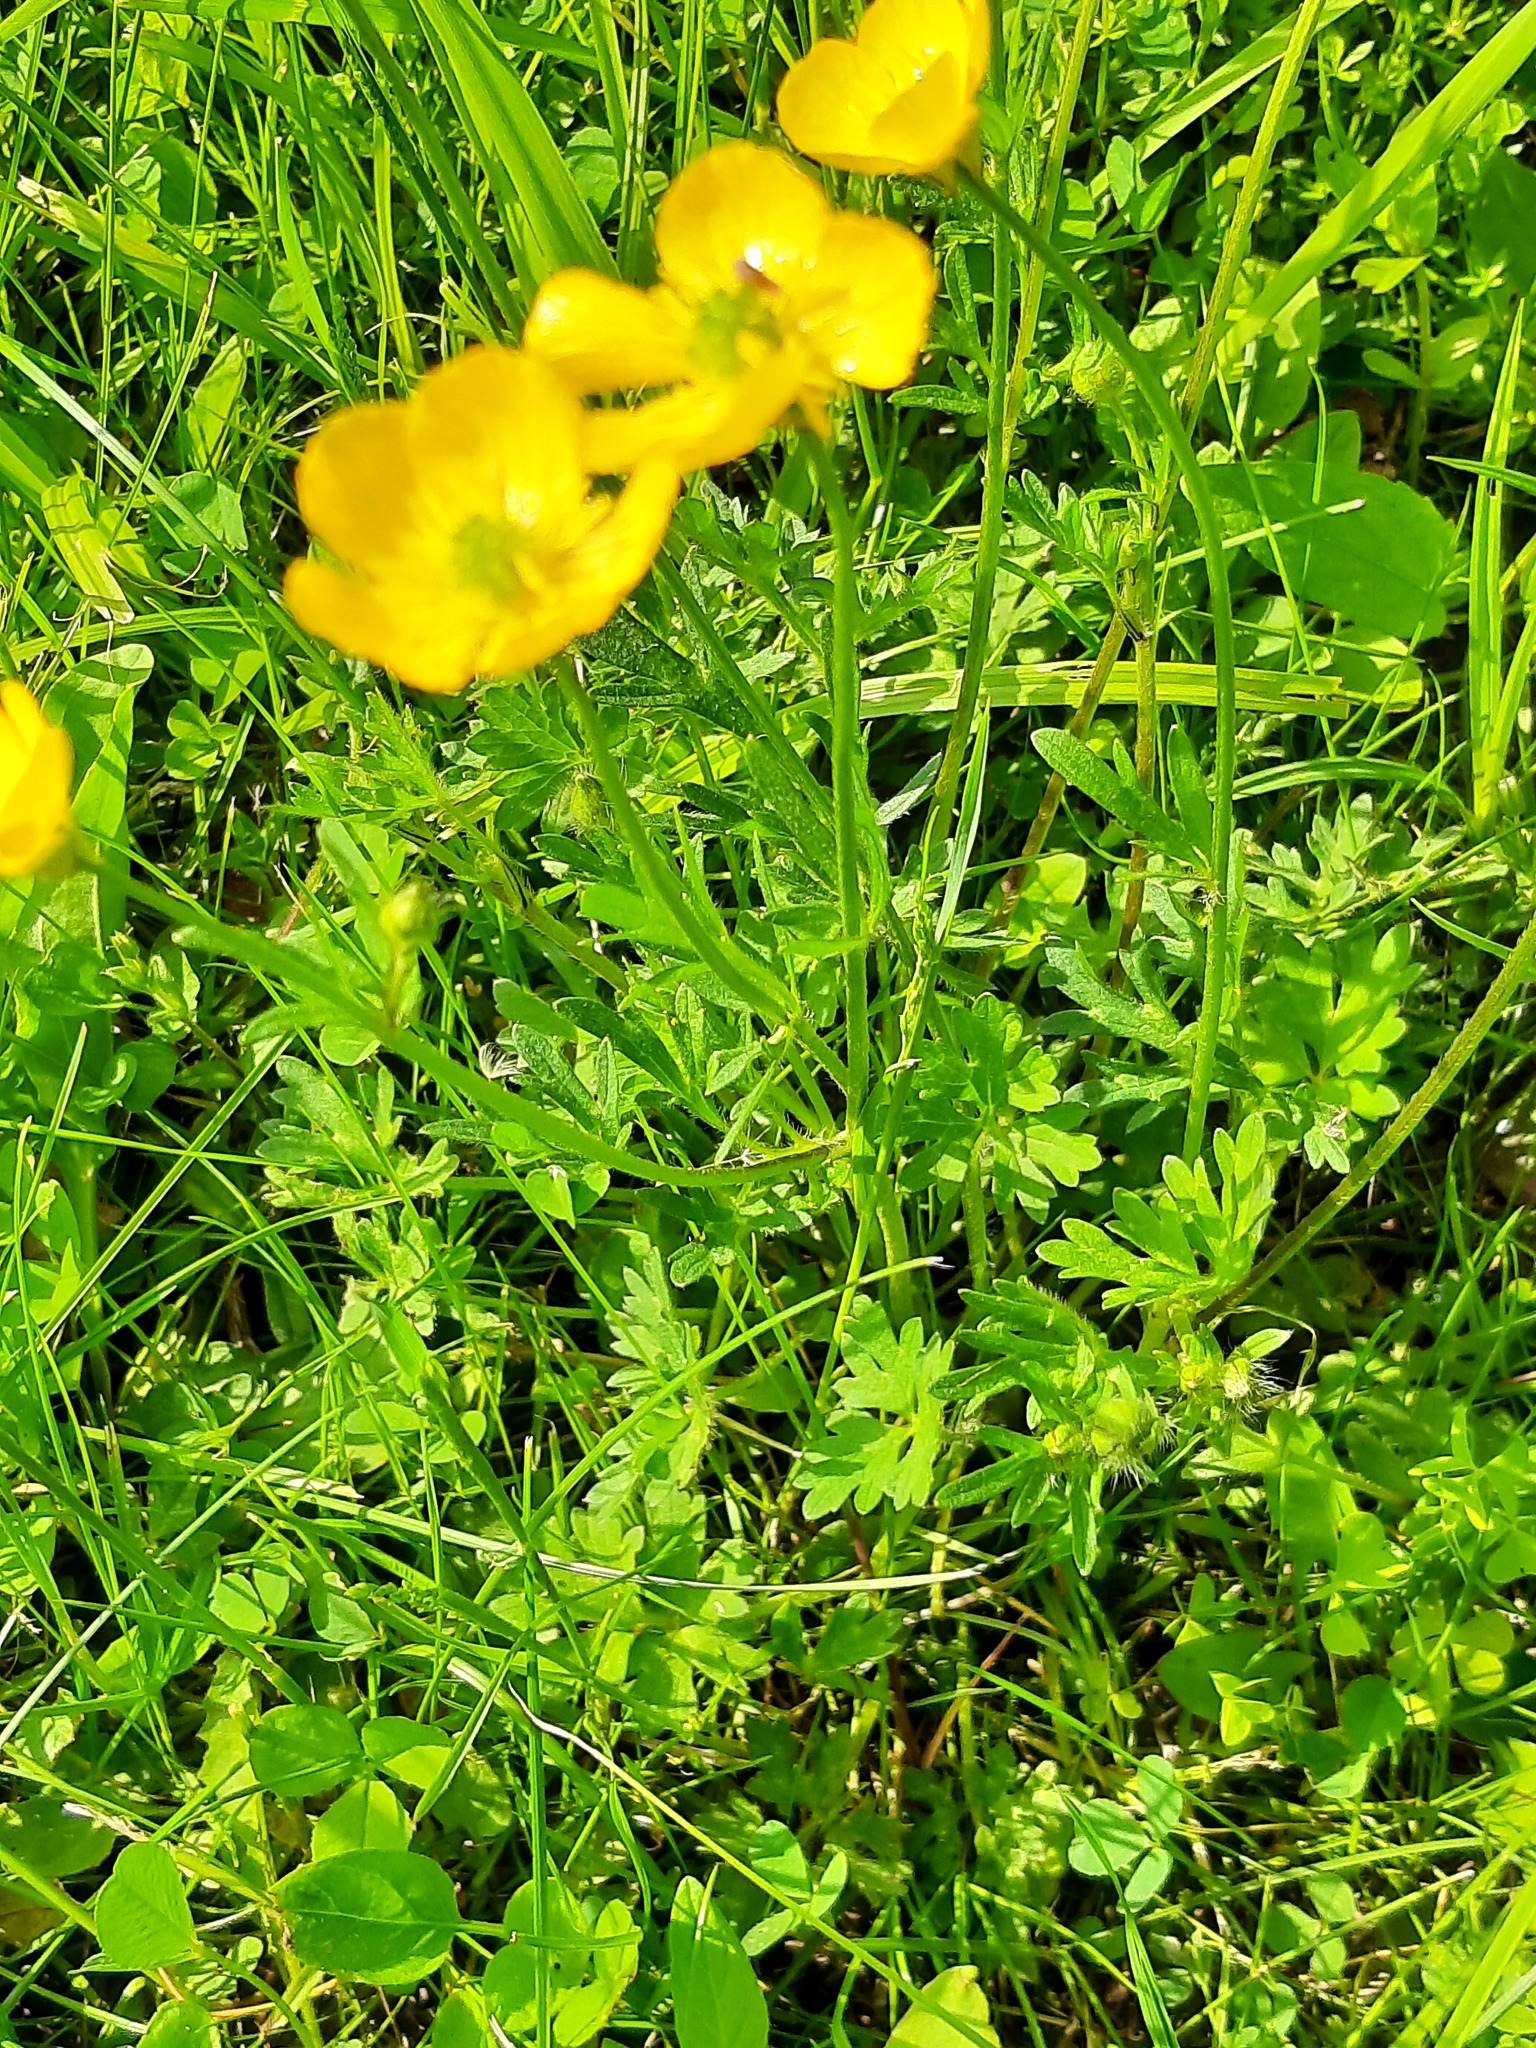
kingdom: Plantae
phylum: Tracheophyta
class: Magnoliopsida
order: Ranunculales
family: Ranunculaceae
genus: Ranunculus
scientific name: Ranunculus bulbosus
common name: Bulbous buttercup
